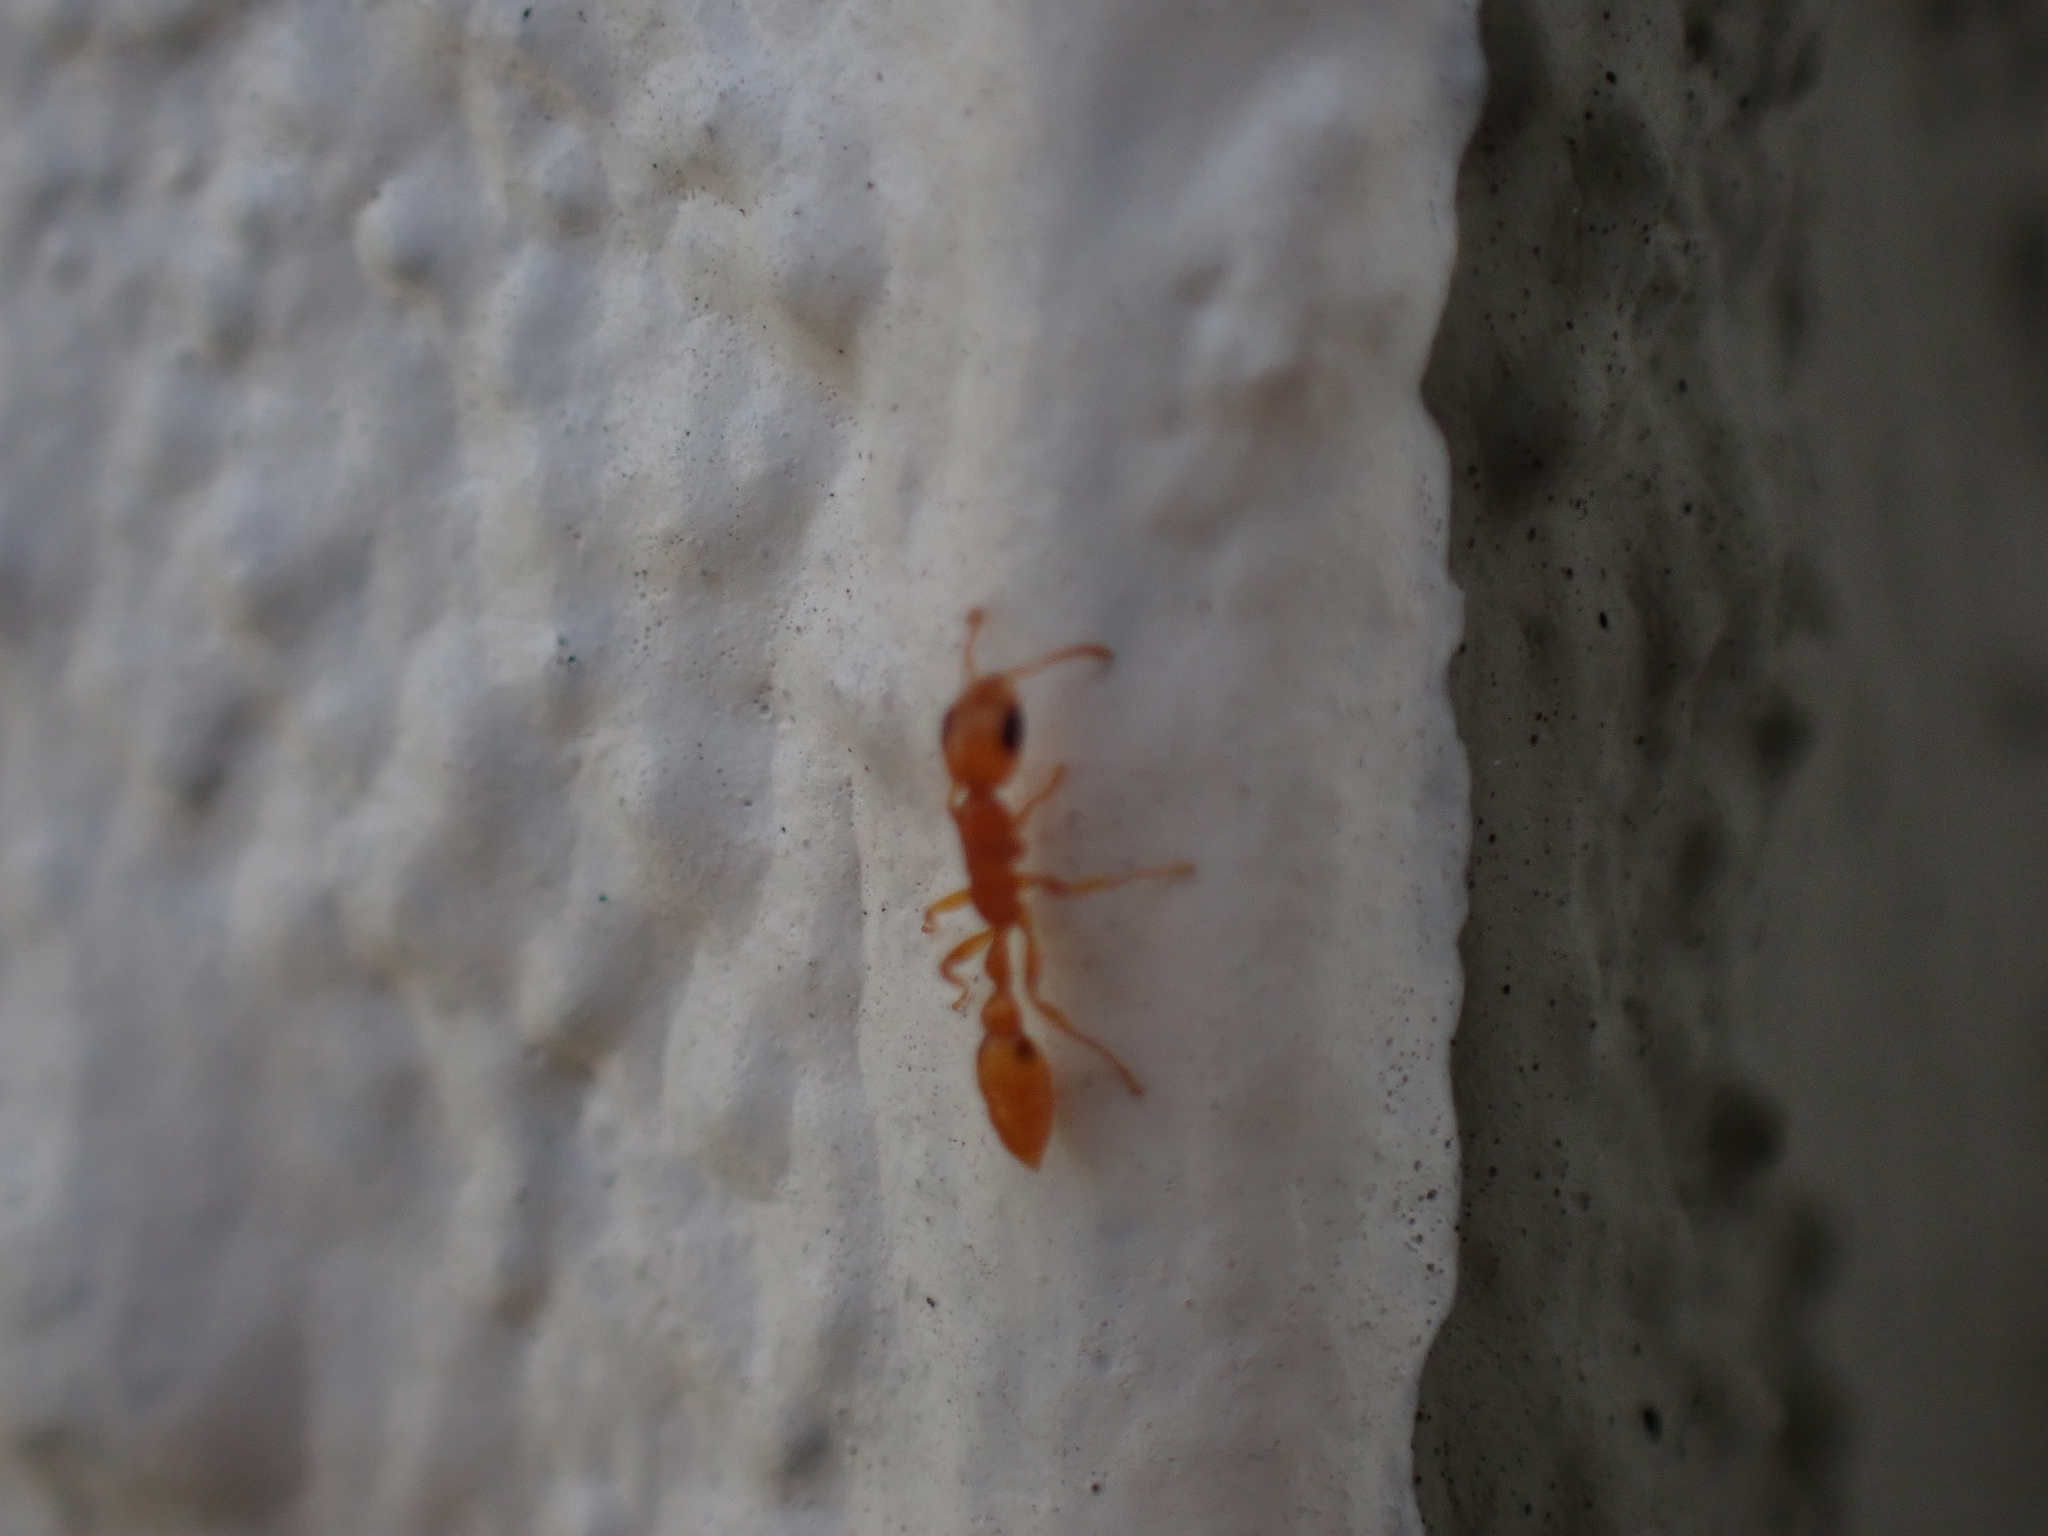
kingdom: Animalia
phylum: Arthropoda
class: Insecta
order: Hymenoptera
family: Formicidae
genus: Pseudomyrmex
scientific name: Pseudomyrmex pallidus
